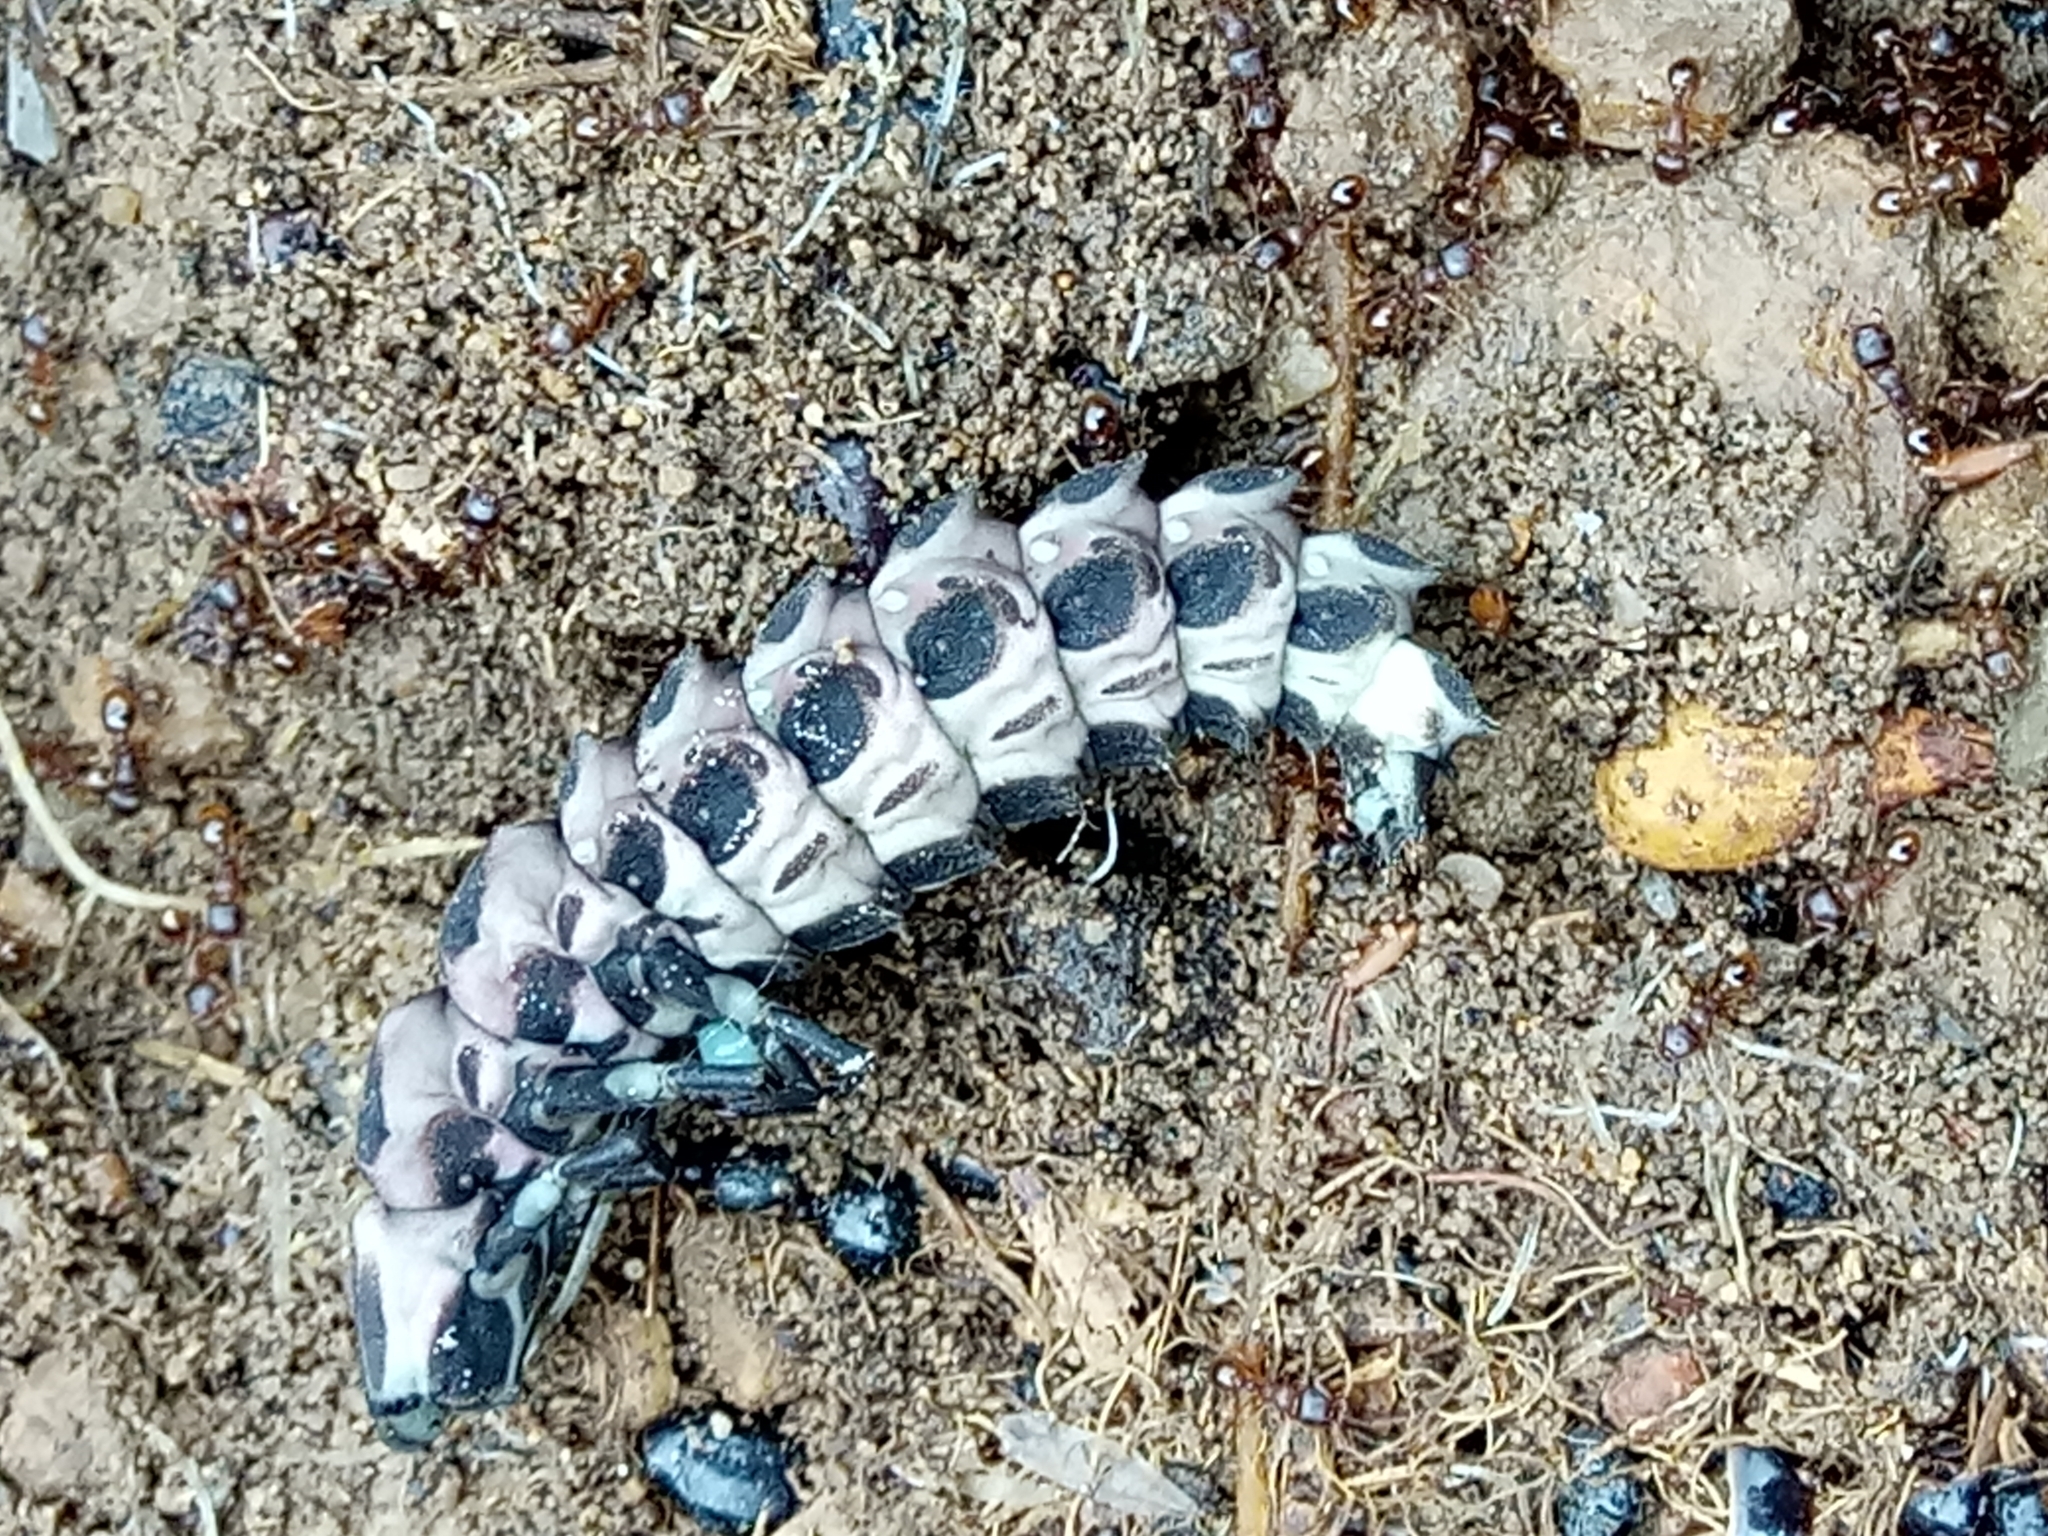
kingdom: Animalia
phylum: Arthropoda
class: Insecta
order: Coleoptera
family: Lampyridae
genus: Pelania
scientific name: Pelania mauritanica
